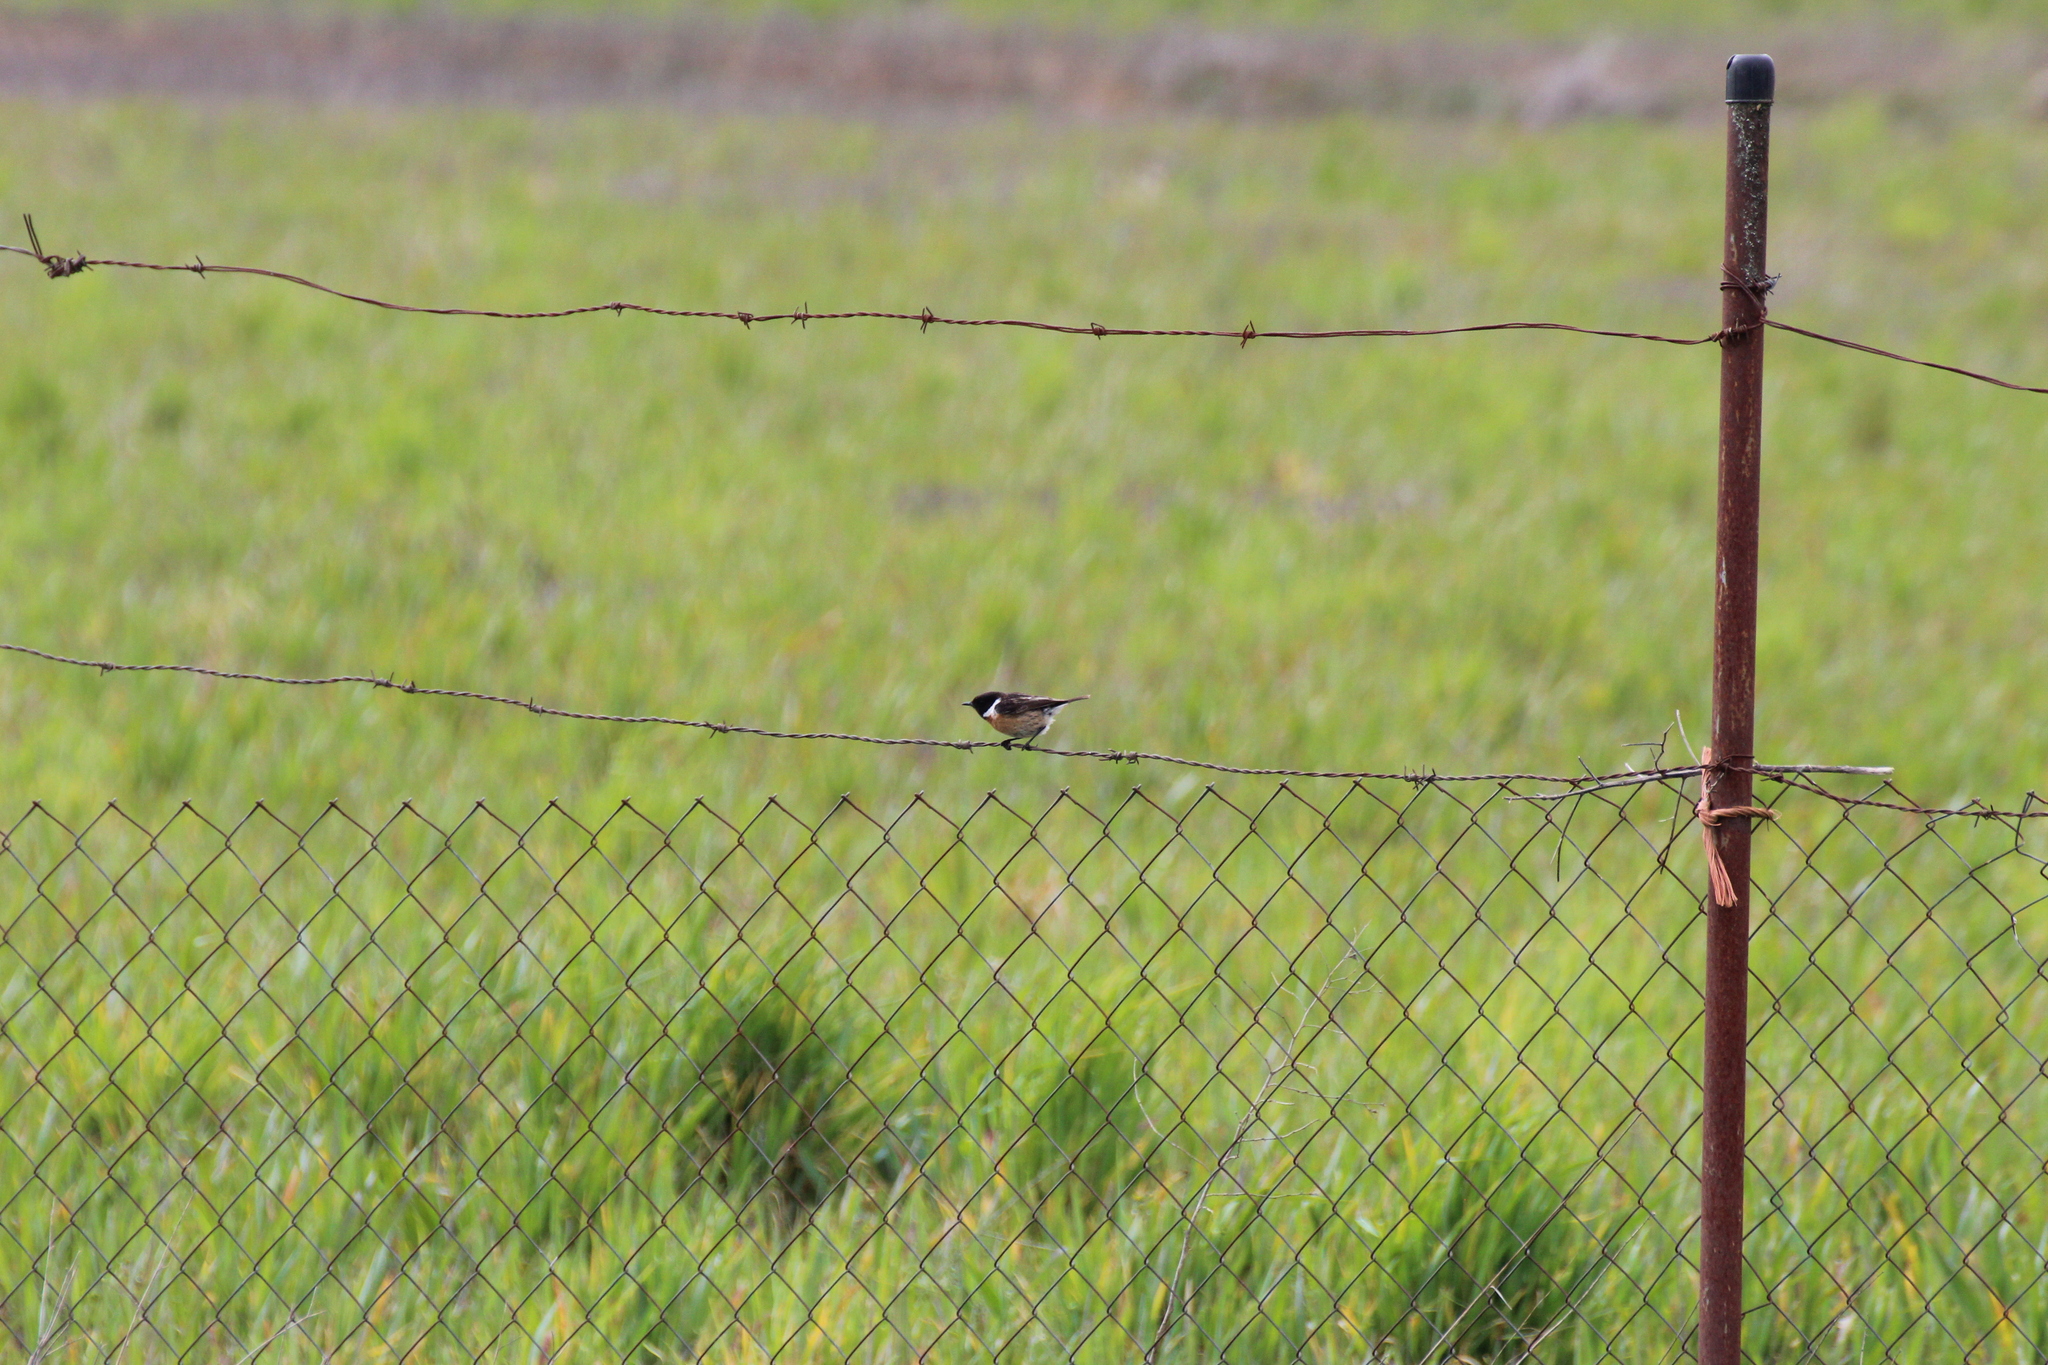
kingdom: Animalia
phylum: Chordata
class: Aves
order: Passeriformes
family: Muscicapidae
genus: Saxicola
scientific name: Saxicola rubicola
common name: European stonechat
